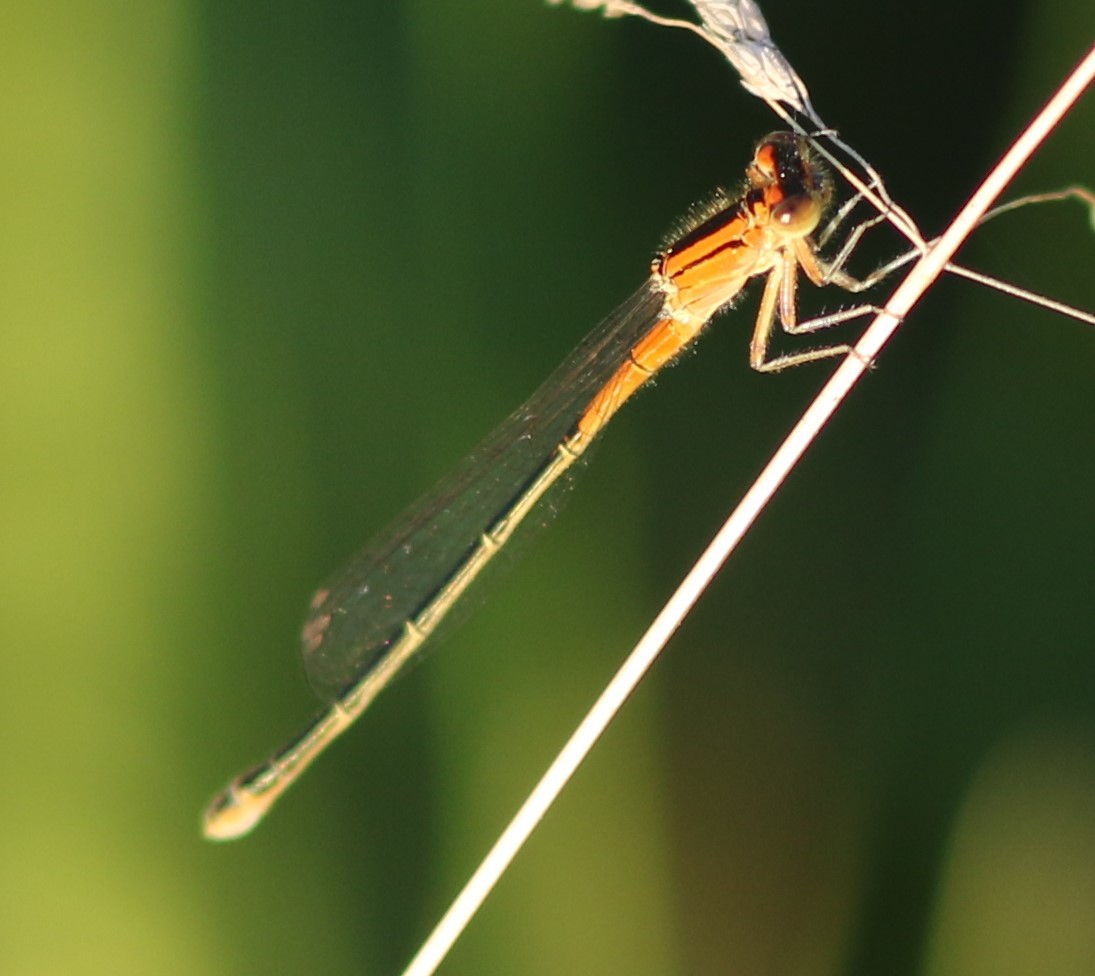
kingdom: Animalia
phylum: Arthropoda
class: Insecta
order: Odonata
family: Coenagrionidae
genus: Ischnura
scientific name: Ischnura verticalis
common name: Eastern forktail
